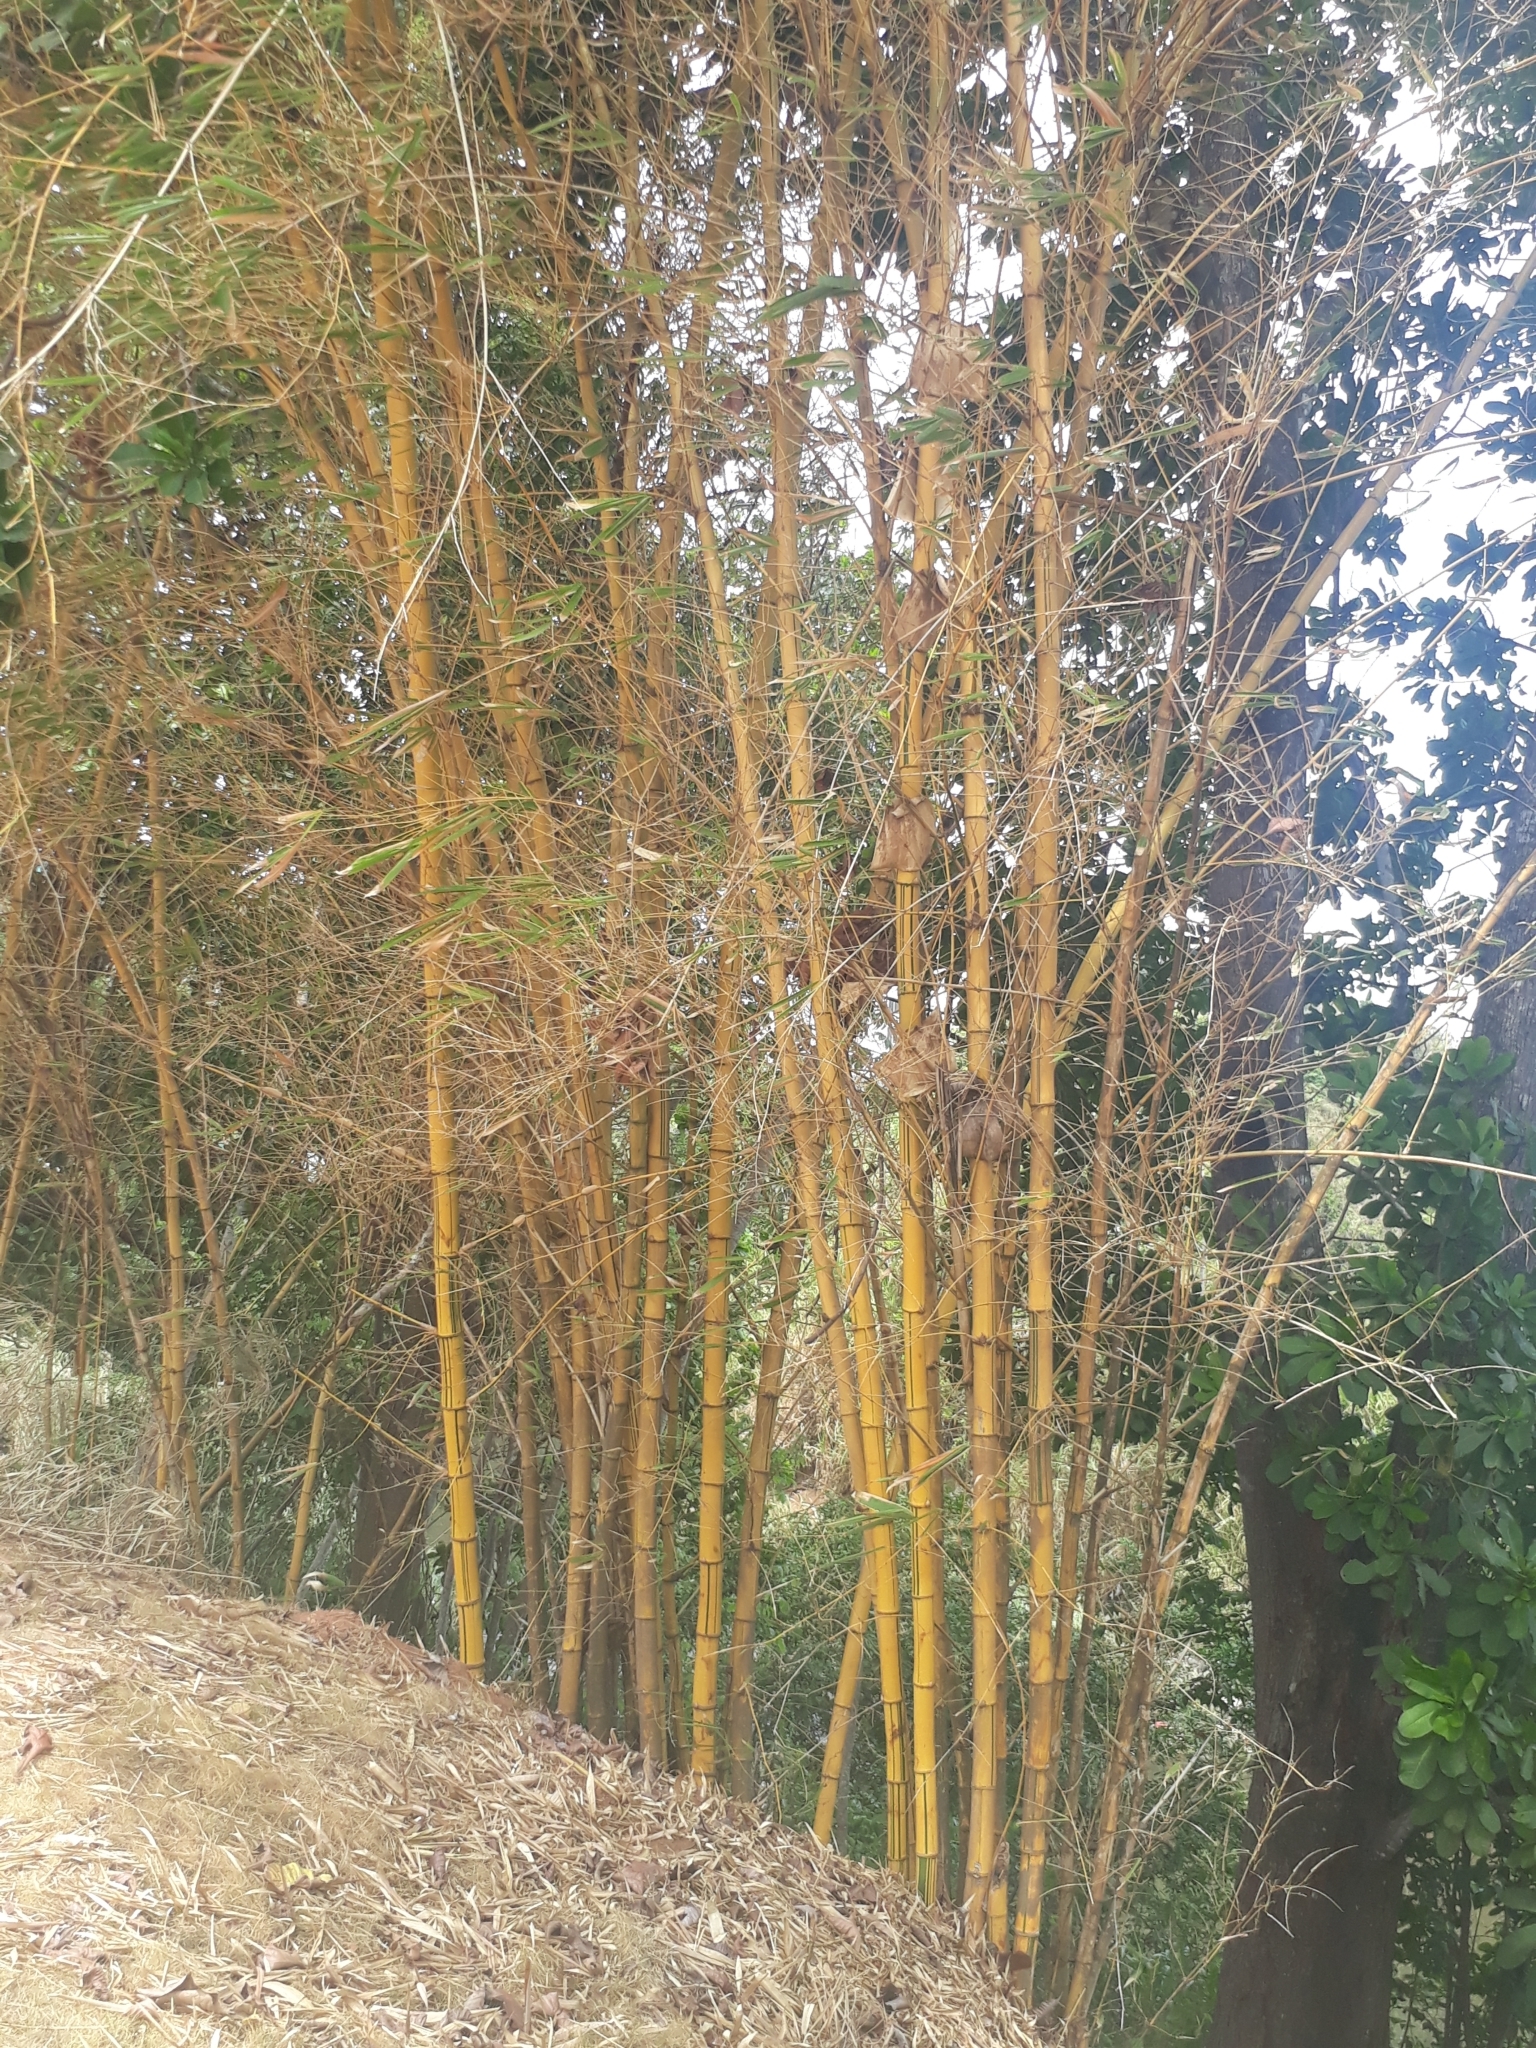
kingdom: Plantae
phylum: Tracheophyta
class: Liliopsida
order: Poales
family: Poaceae
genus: Bambusa
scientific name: Bambusa vulgaris
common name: Common bamboo
